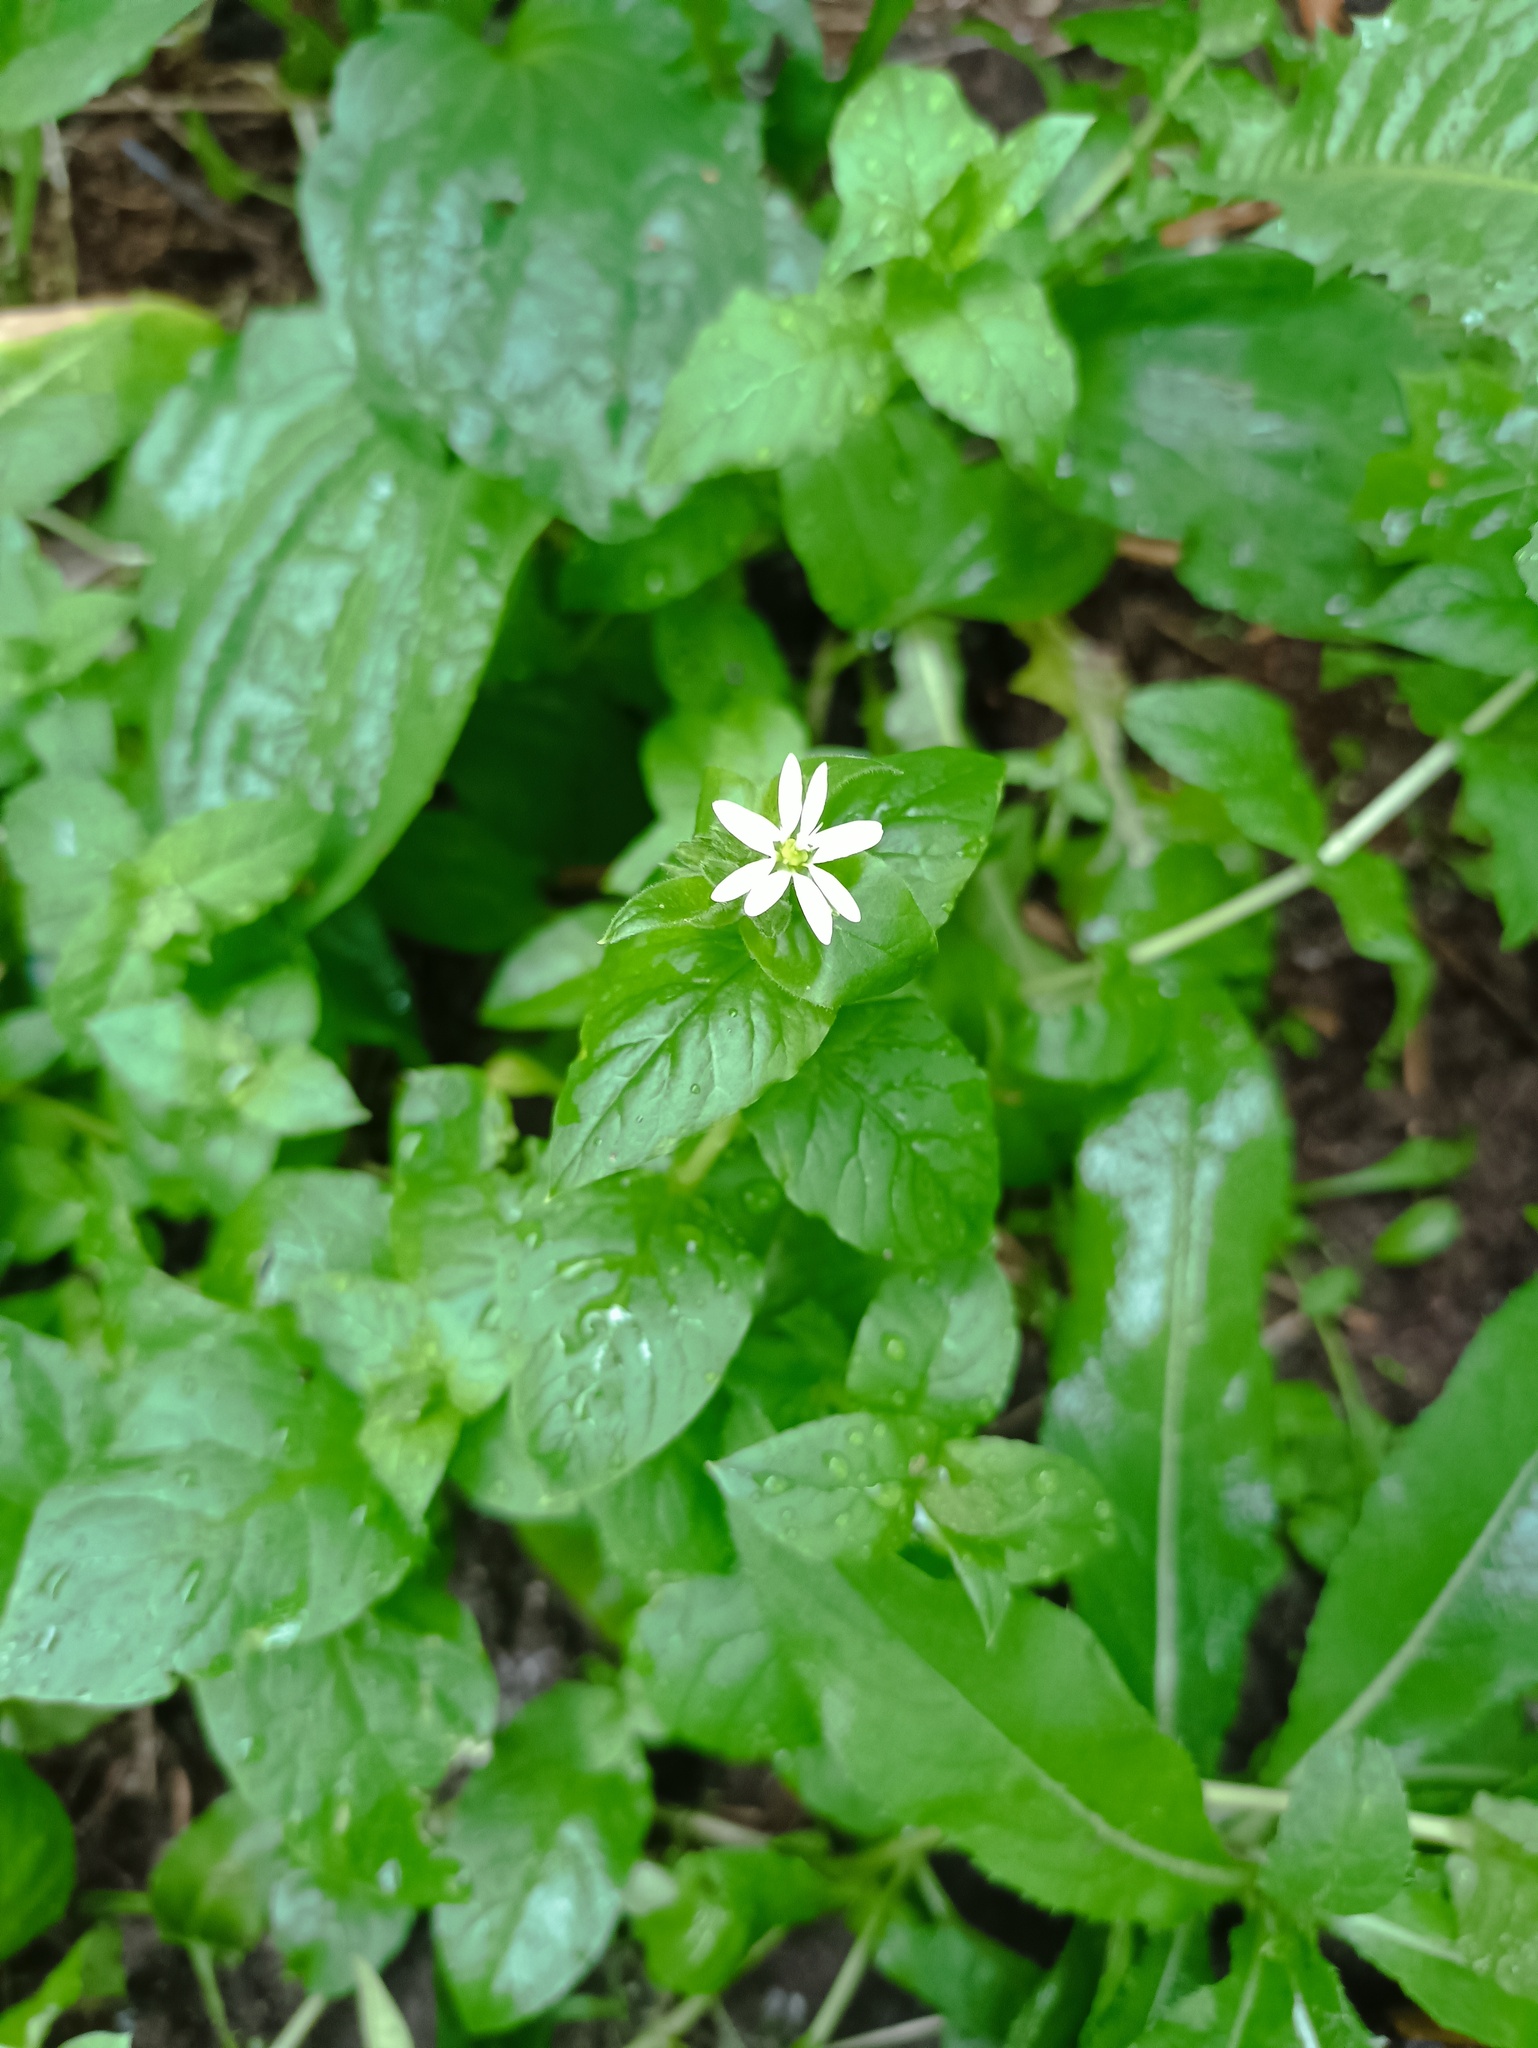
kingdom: Plantae
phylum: Tracheophyta
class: Magnoliopsida
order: Caryophyllales
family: Caryophyllaceae
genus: Stellaria
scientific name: Stellaria aquatica
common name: Water chickweed
